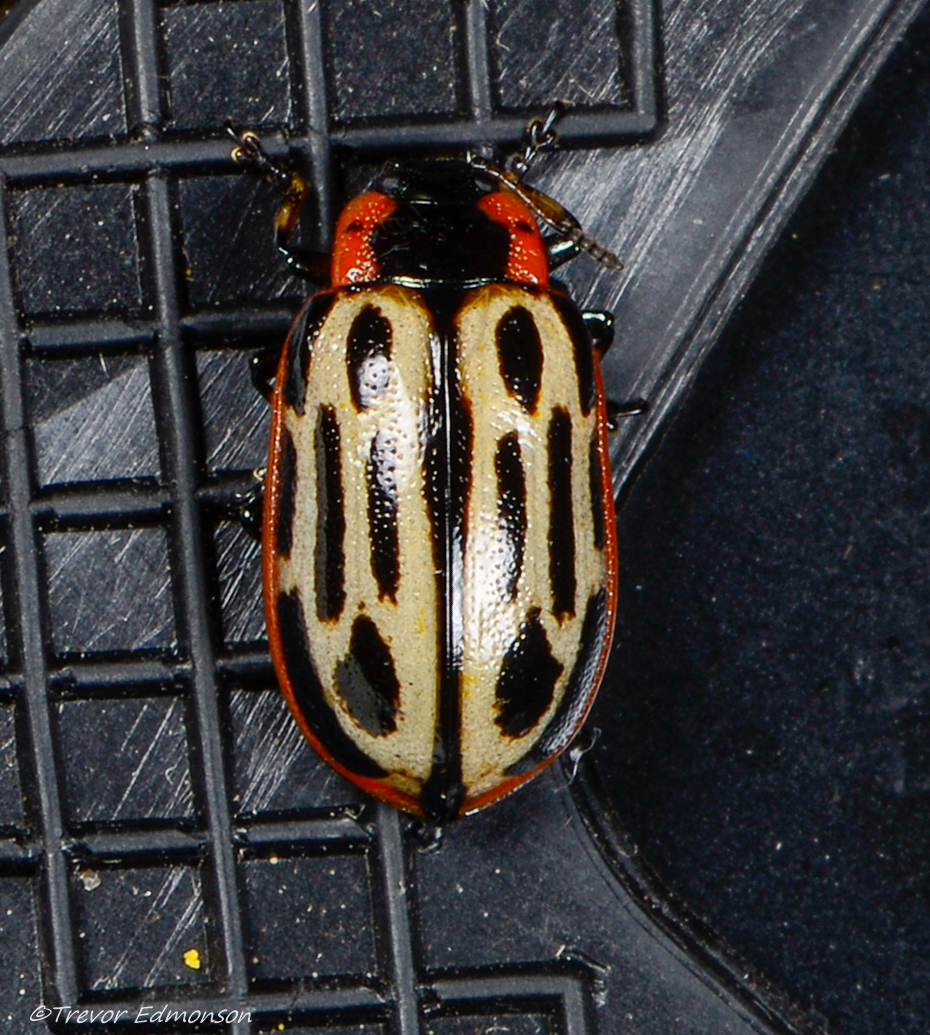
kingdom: Animalia
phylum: Arthropoda
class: Insecta
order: Coleoptera
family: Chrysomelidae
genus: Aethiopocassis
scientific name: Aethiopocassis scripta
